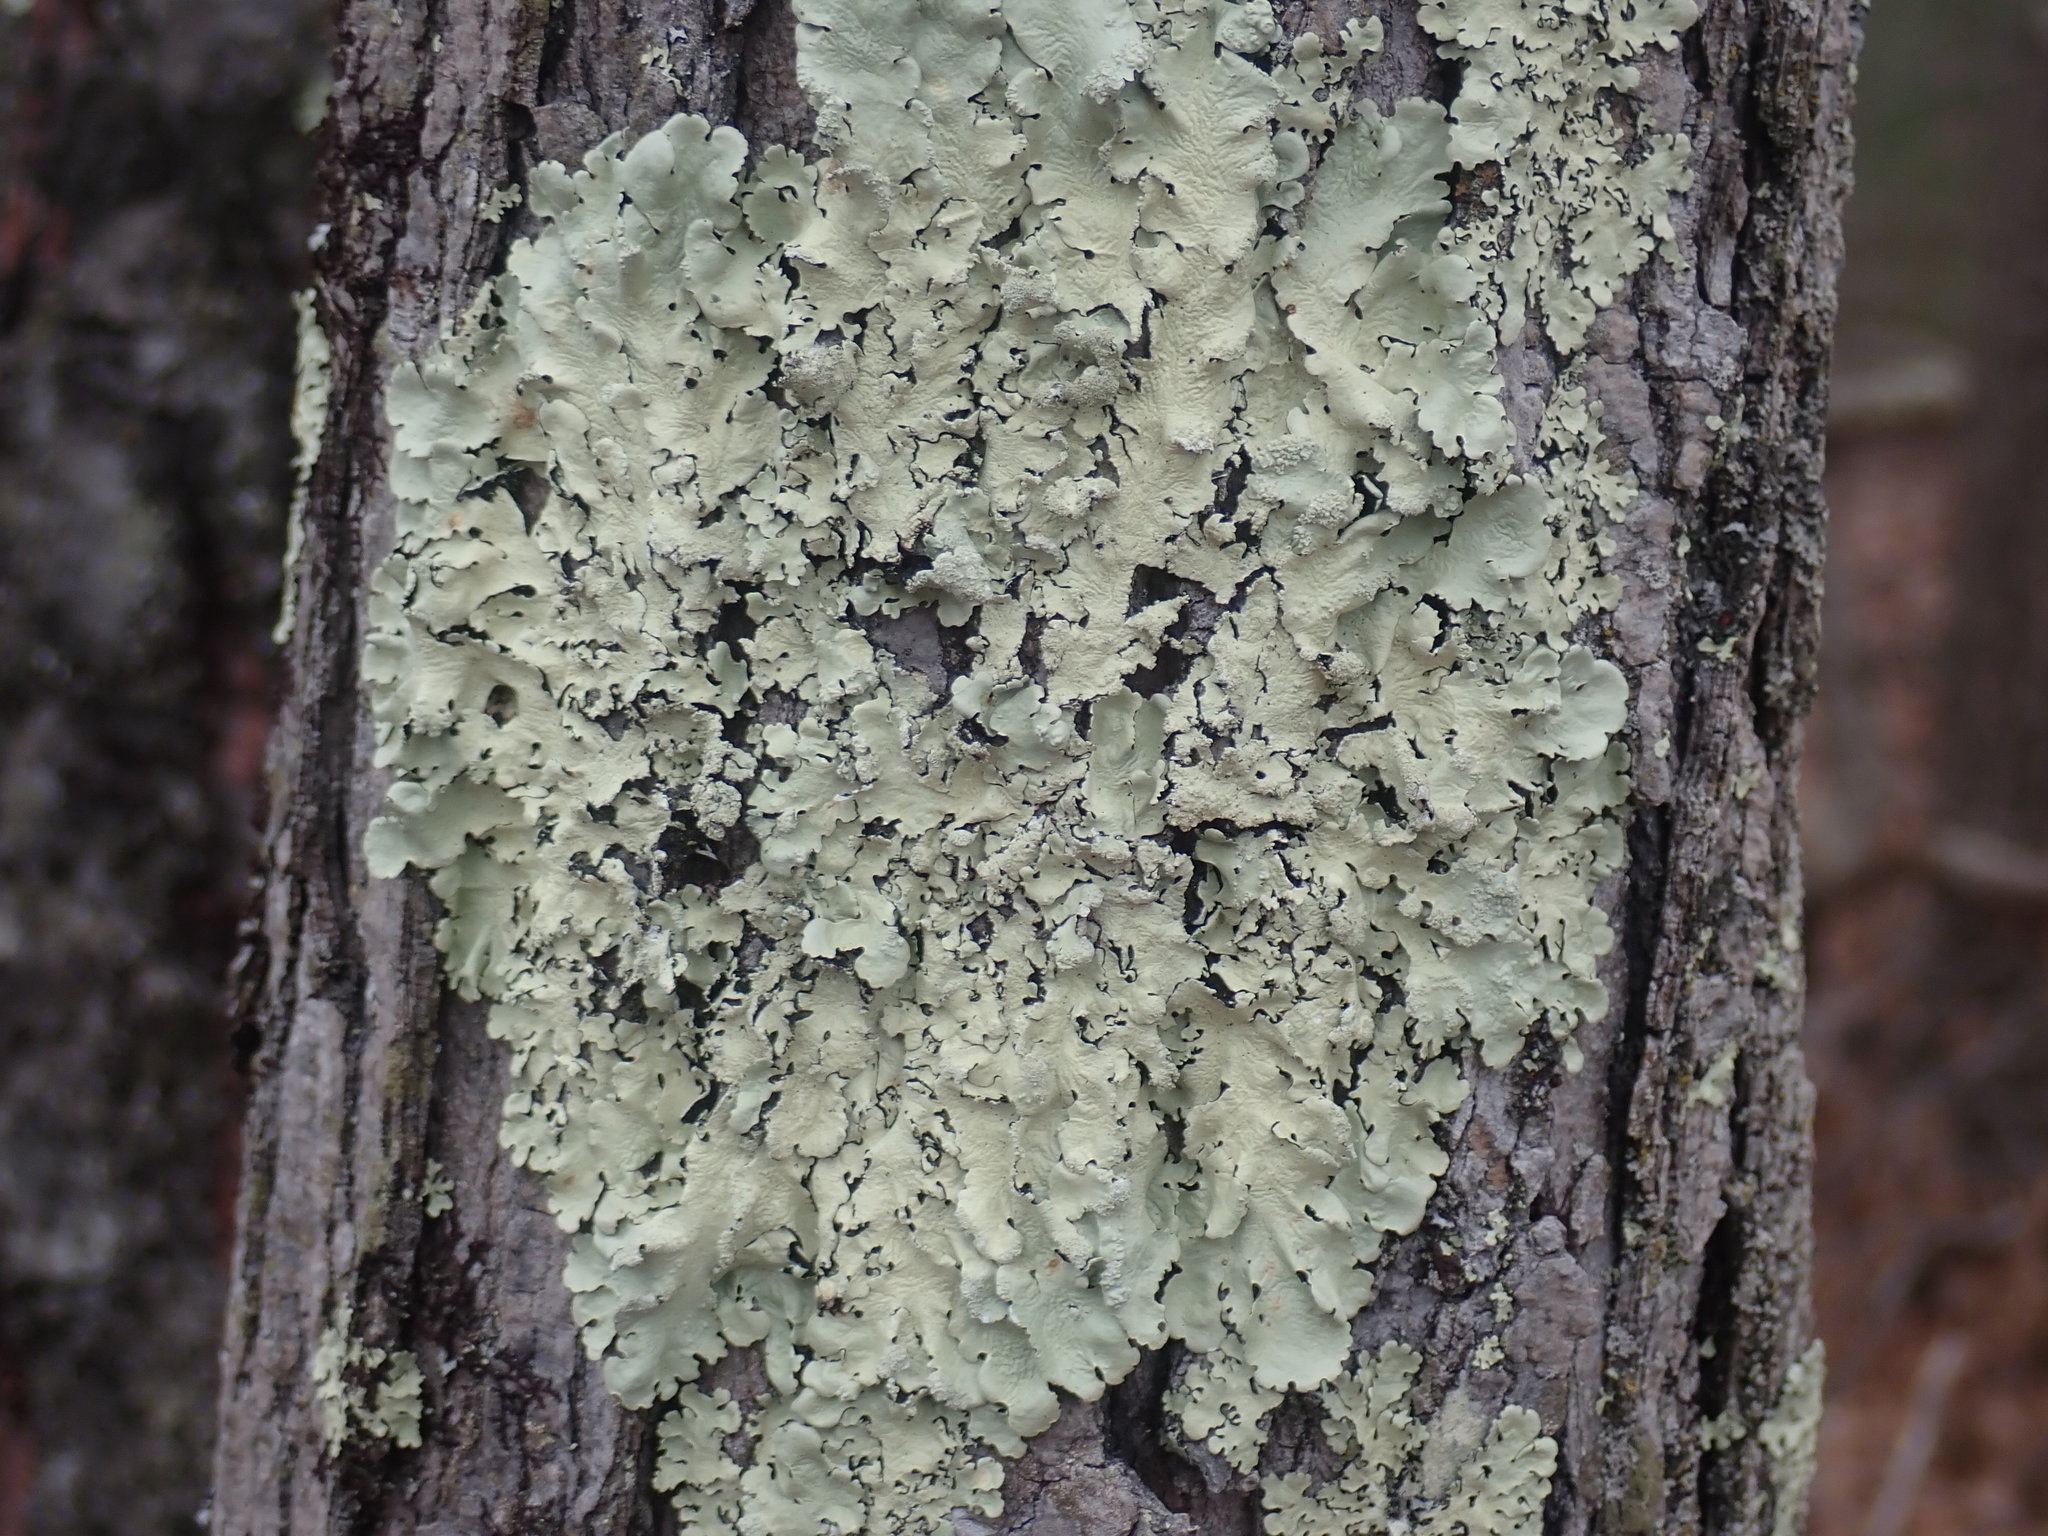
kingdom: Fungi
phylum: Ascomycota
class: Lecanoromycetes
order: Lecanorales
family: Parmeliaceae
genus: Flavoparmelia
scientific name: Flavoparmelia caperata
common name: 40-mile per hour lichen
